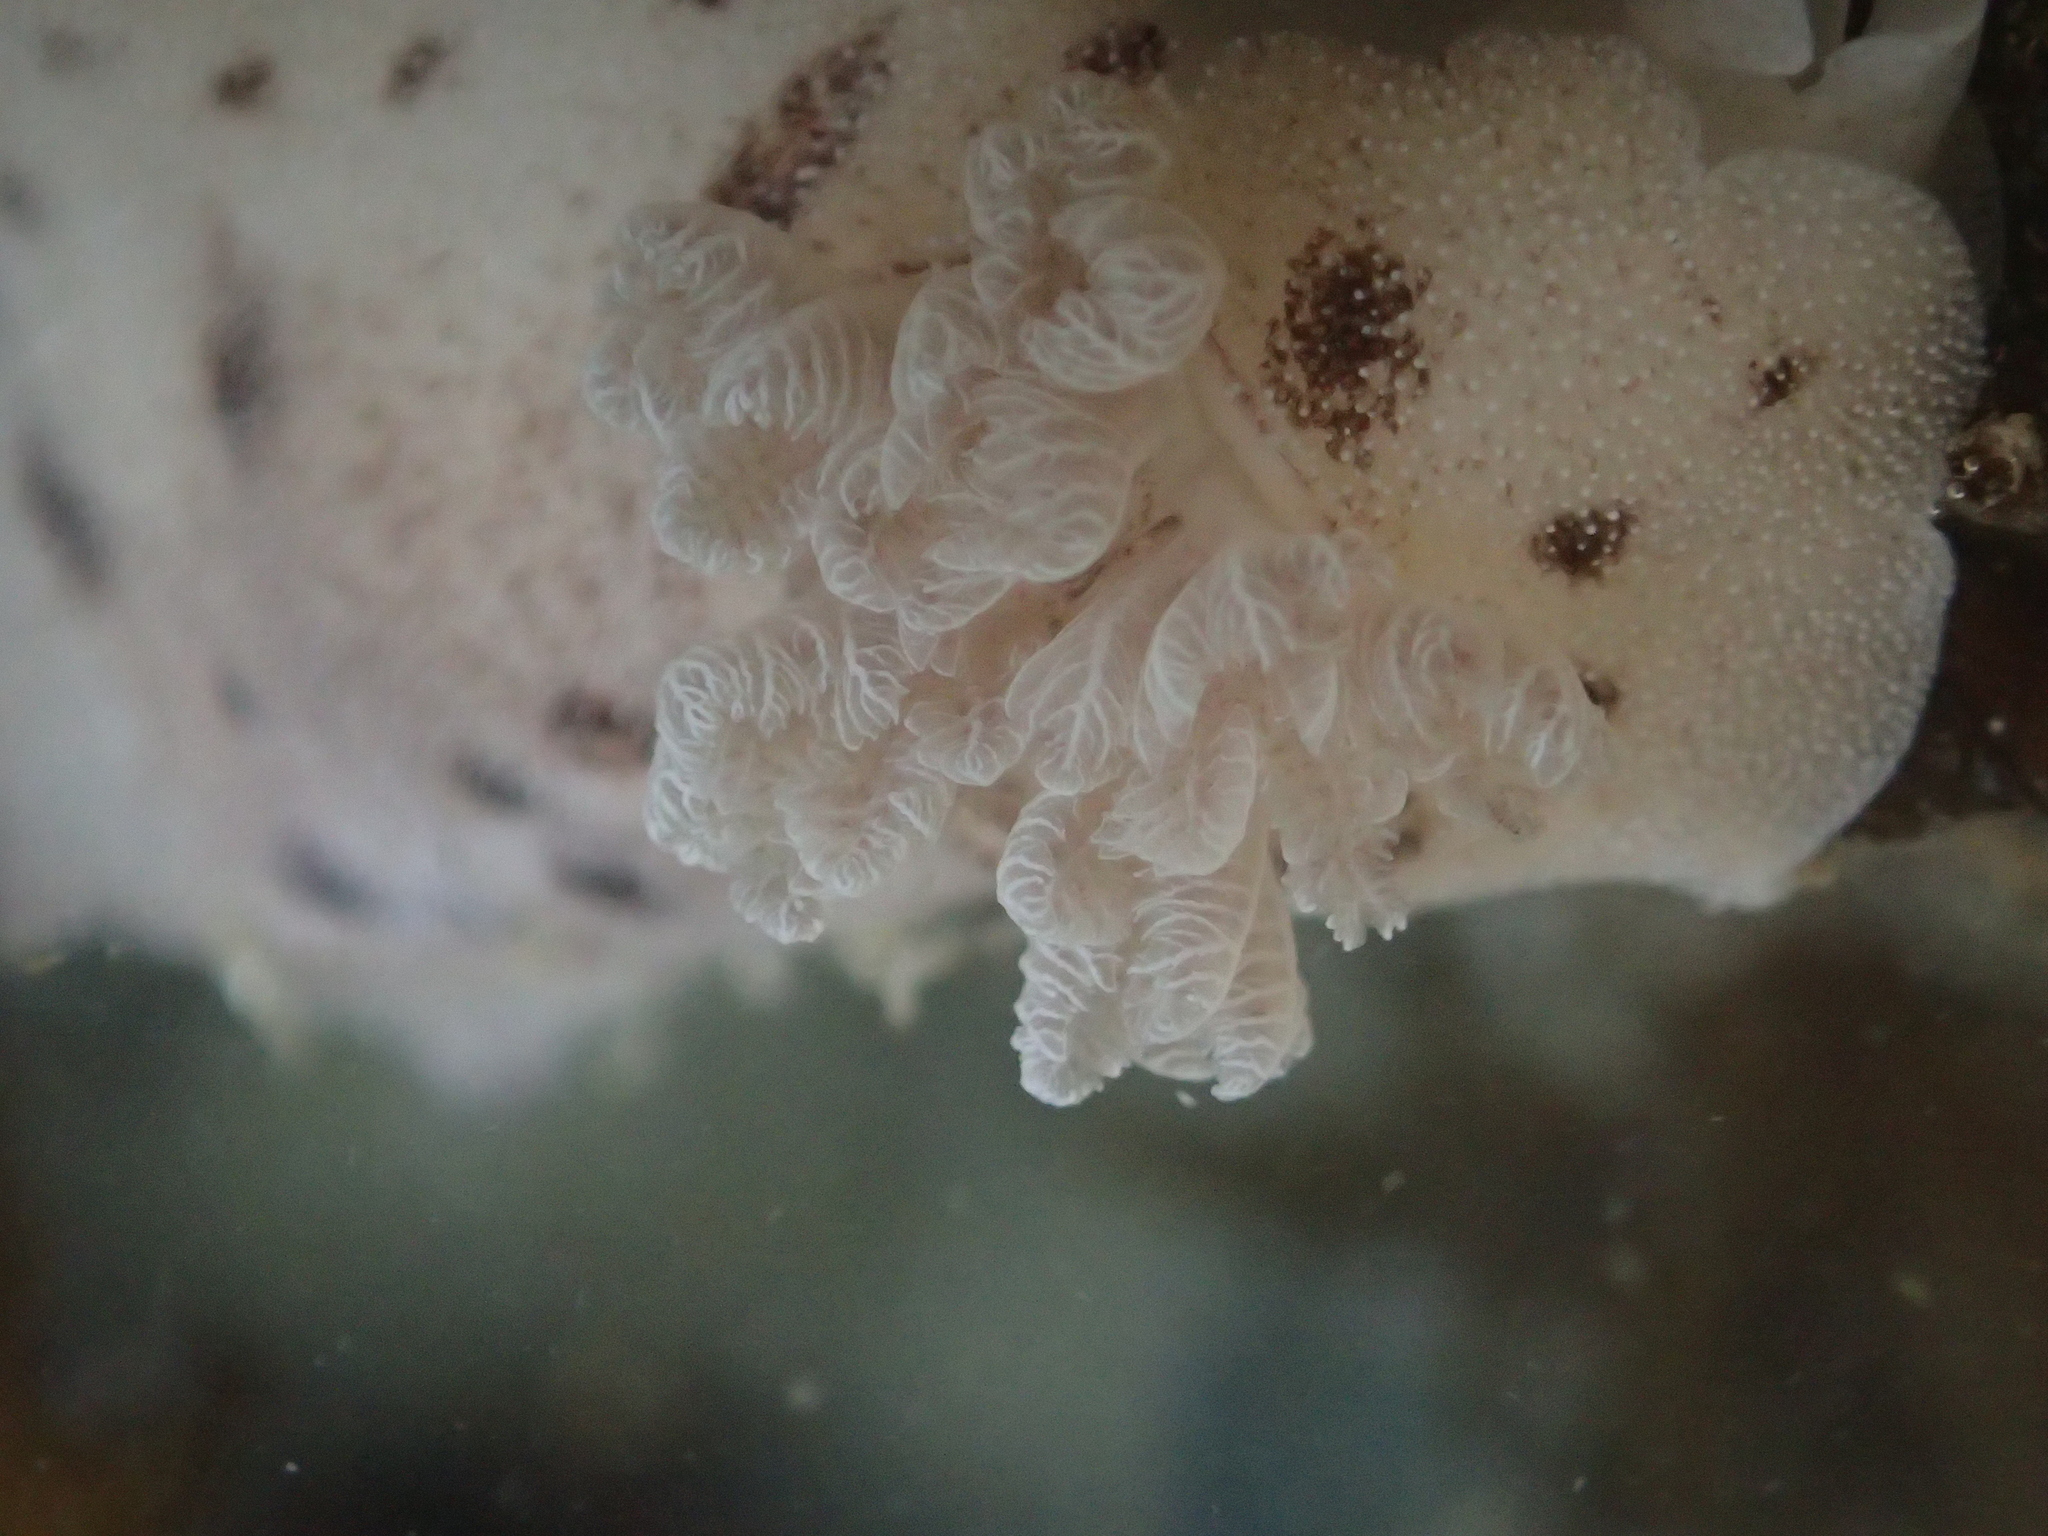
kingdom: Animalia
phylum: Mollusca
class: Gastropoda
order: Nudibranchia
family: Discodorididae
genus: Alloiodoris
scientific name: Alloiodoris lanuginata
